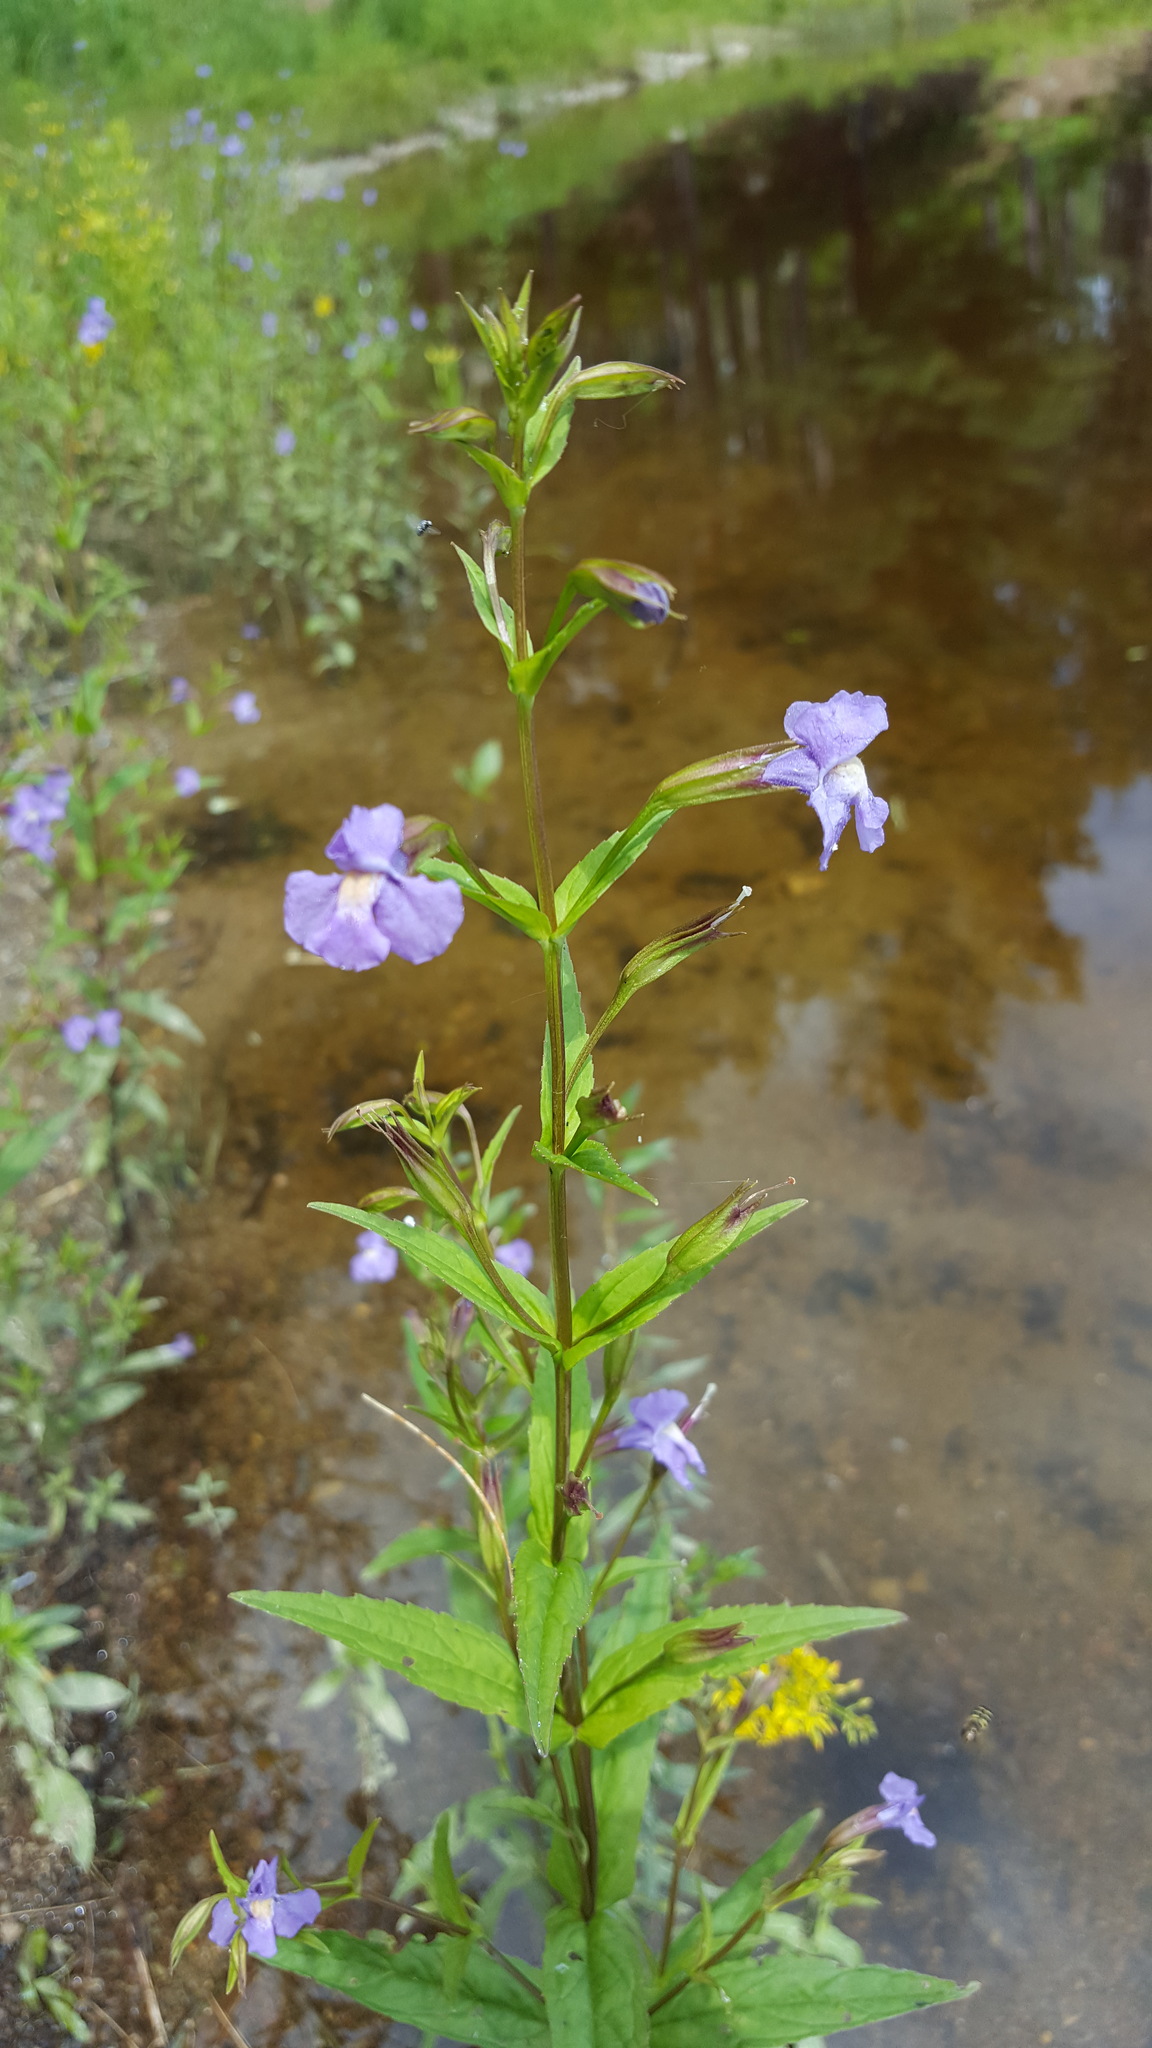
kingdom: Plantae
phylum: Tracheophyta
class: Magnoliopsida
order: Lamiales
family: Phrymaceae
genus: Mimulus
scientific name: Mimulus ringens
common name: Allegheny monkeyflower
